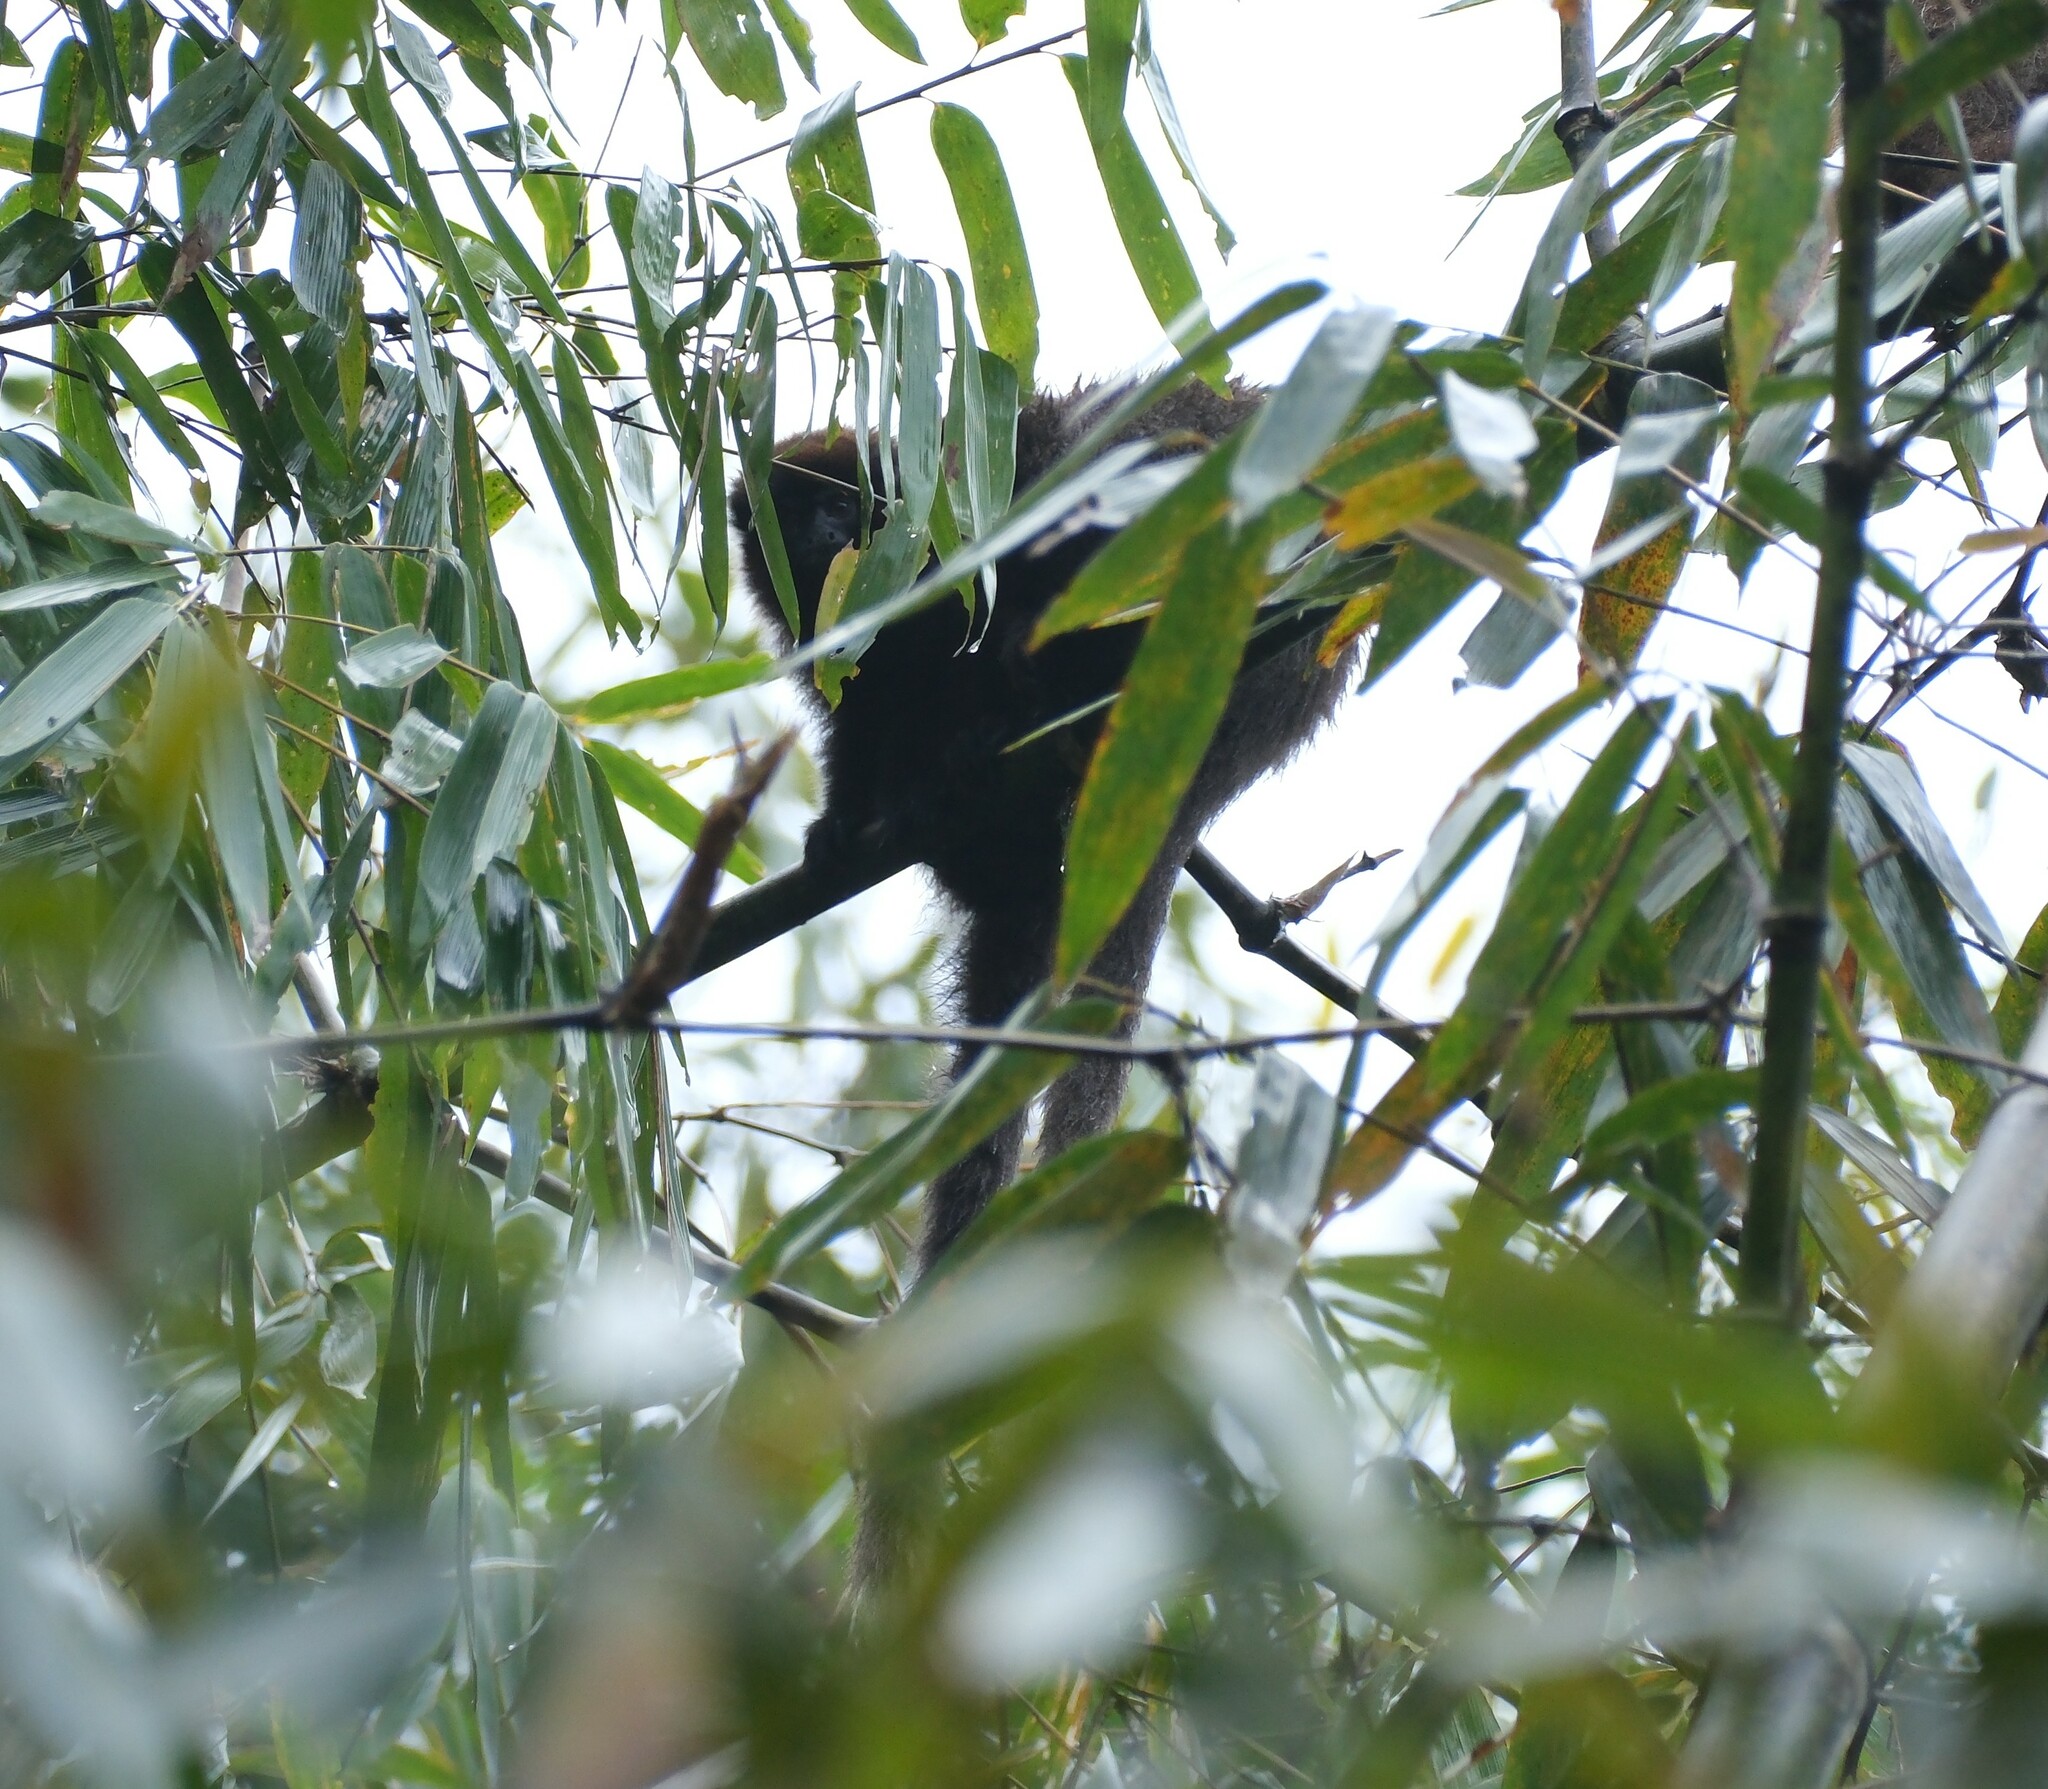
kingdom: Animalia
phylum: Chordata
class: Mammalia
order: Primates
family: Pitheciidae
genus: Plecturocebus
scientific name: Plecturocebus toppini
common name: Toppin's titi
